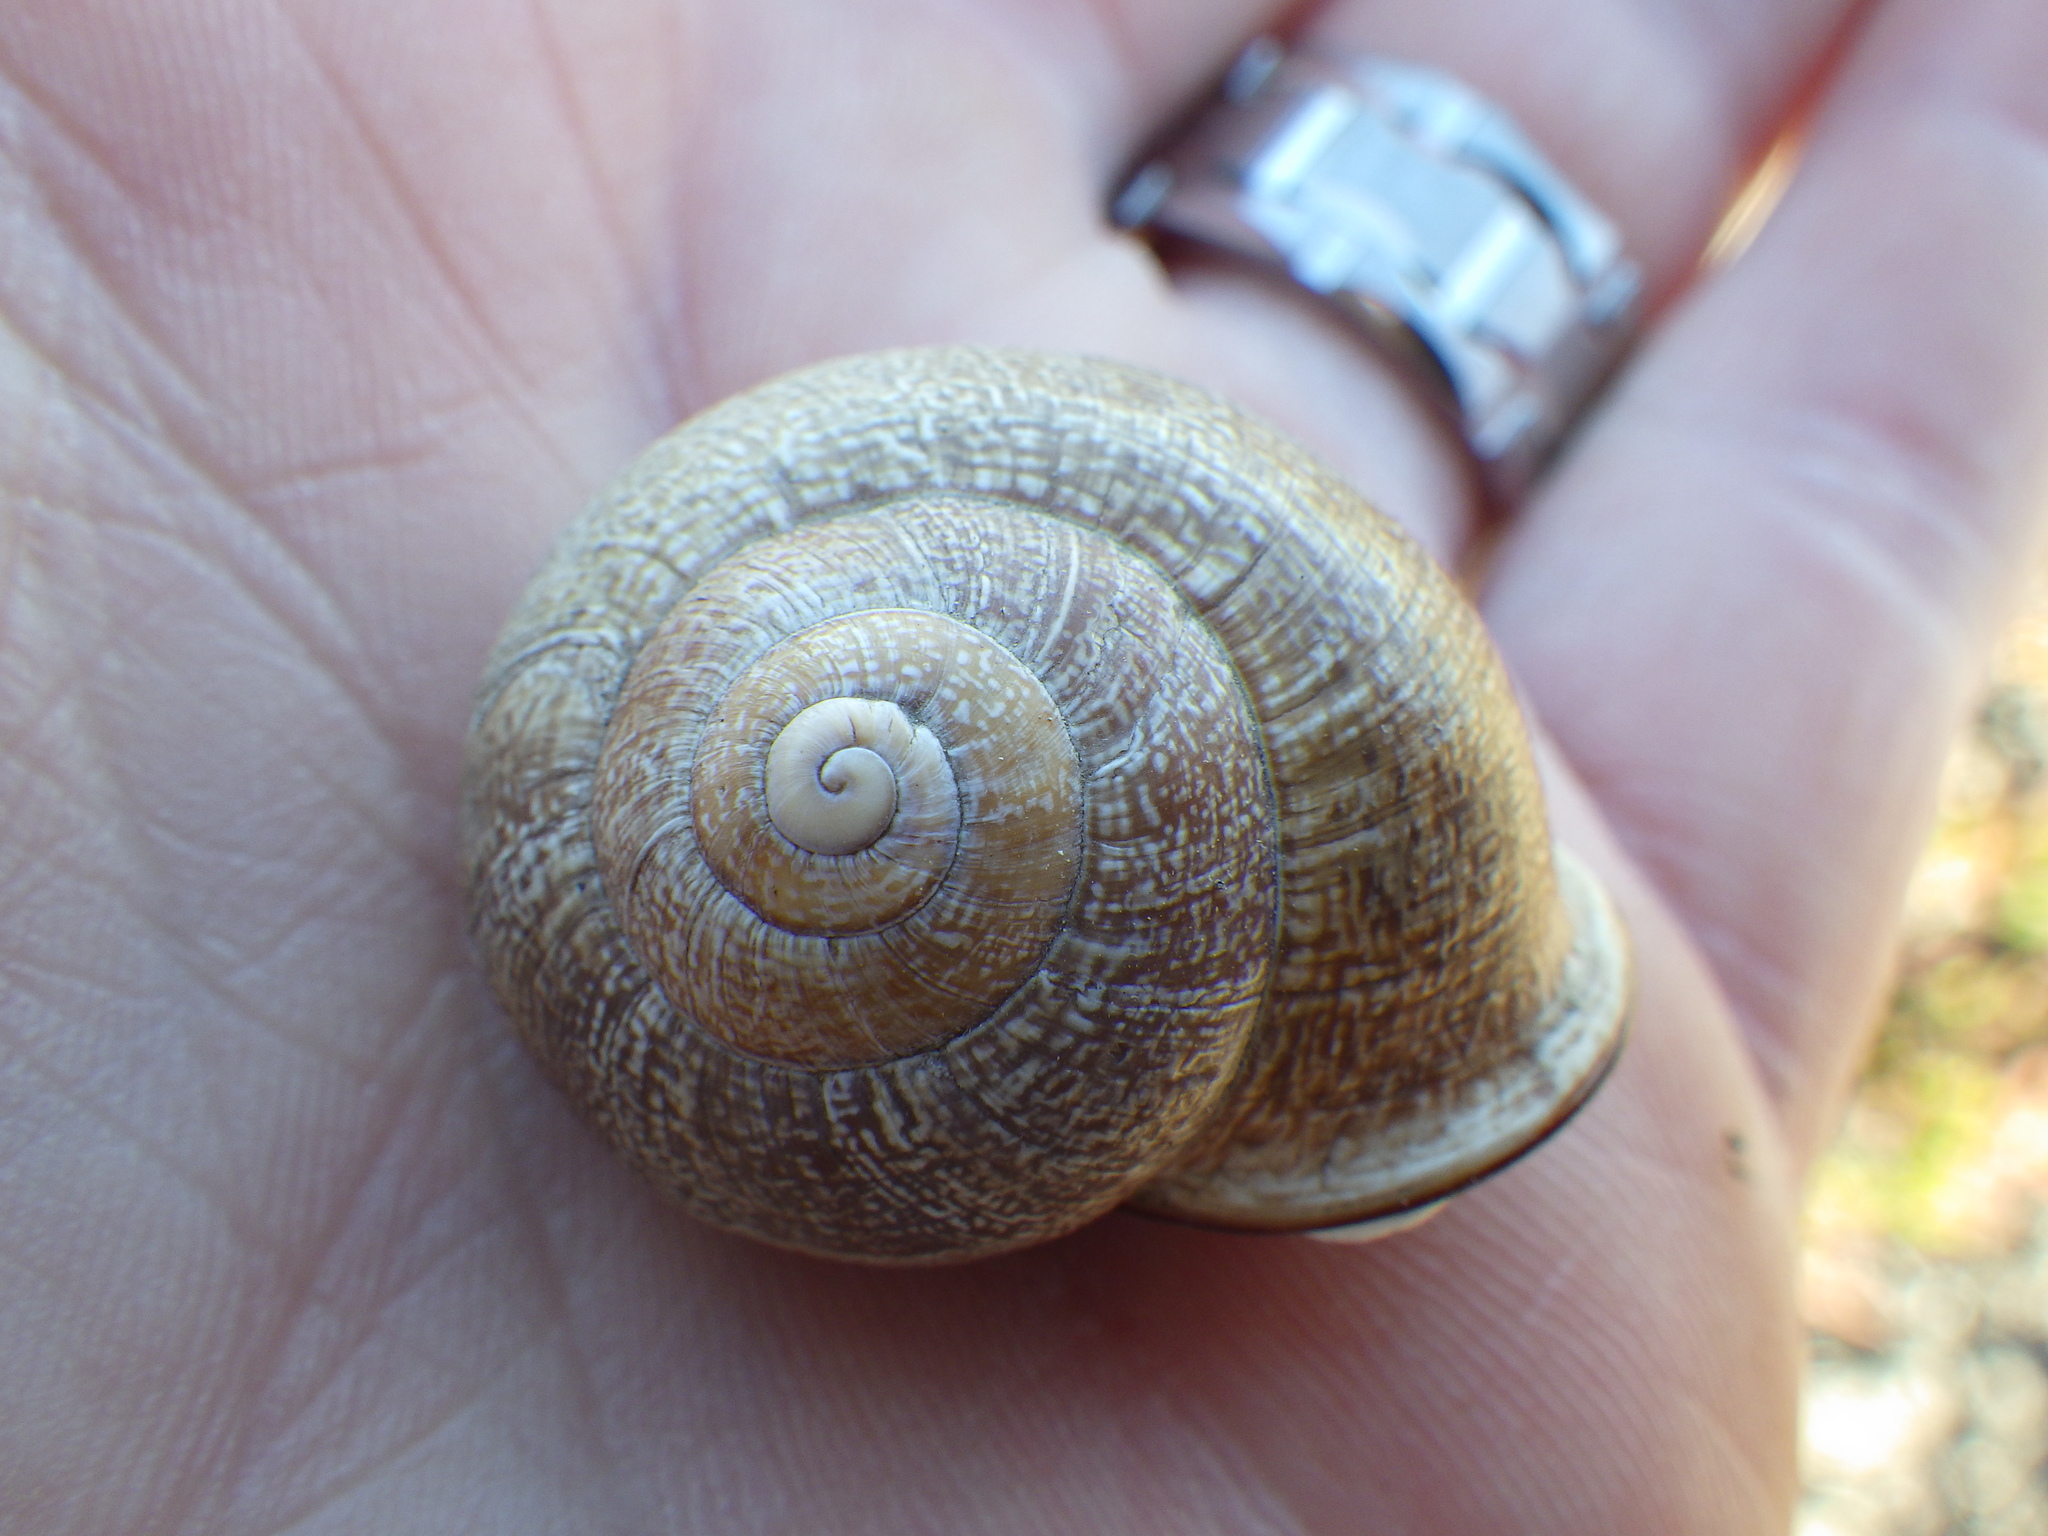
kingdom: Animalia
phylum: Mollusca
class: Gastropoda
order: Stylommatophora
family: Helicidae
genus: Otala
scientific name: Otala lactea
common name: Milk snail
